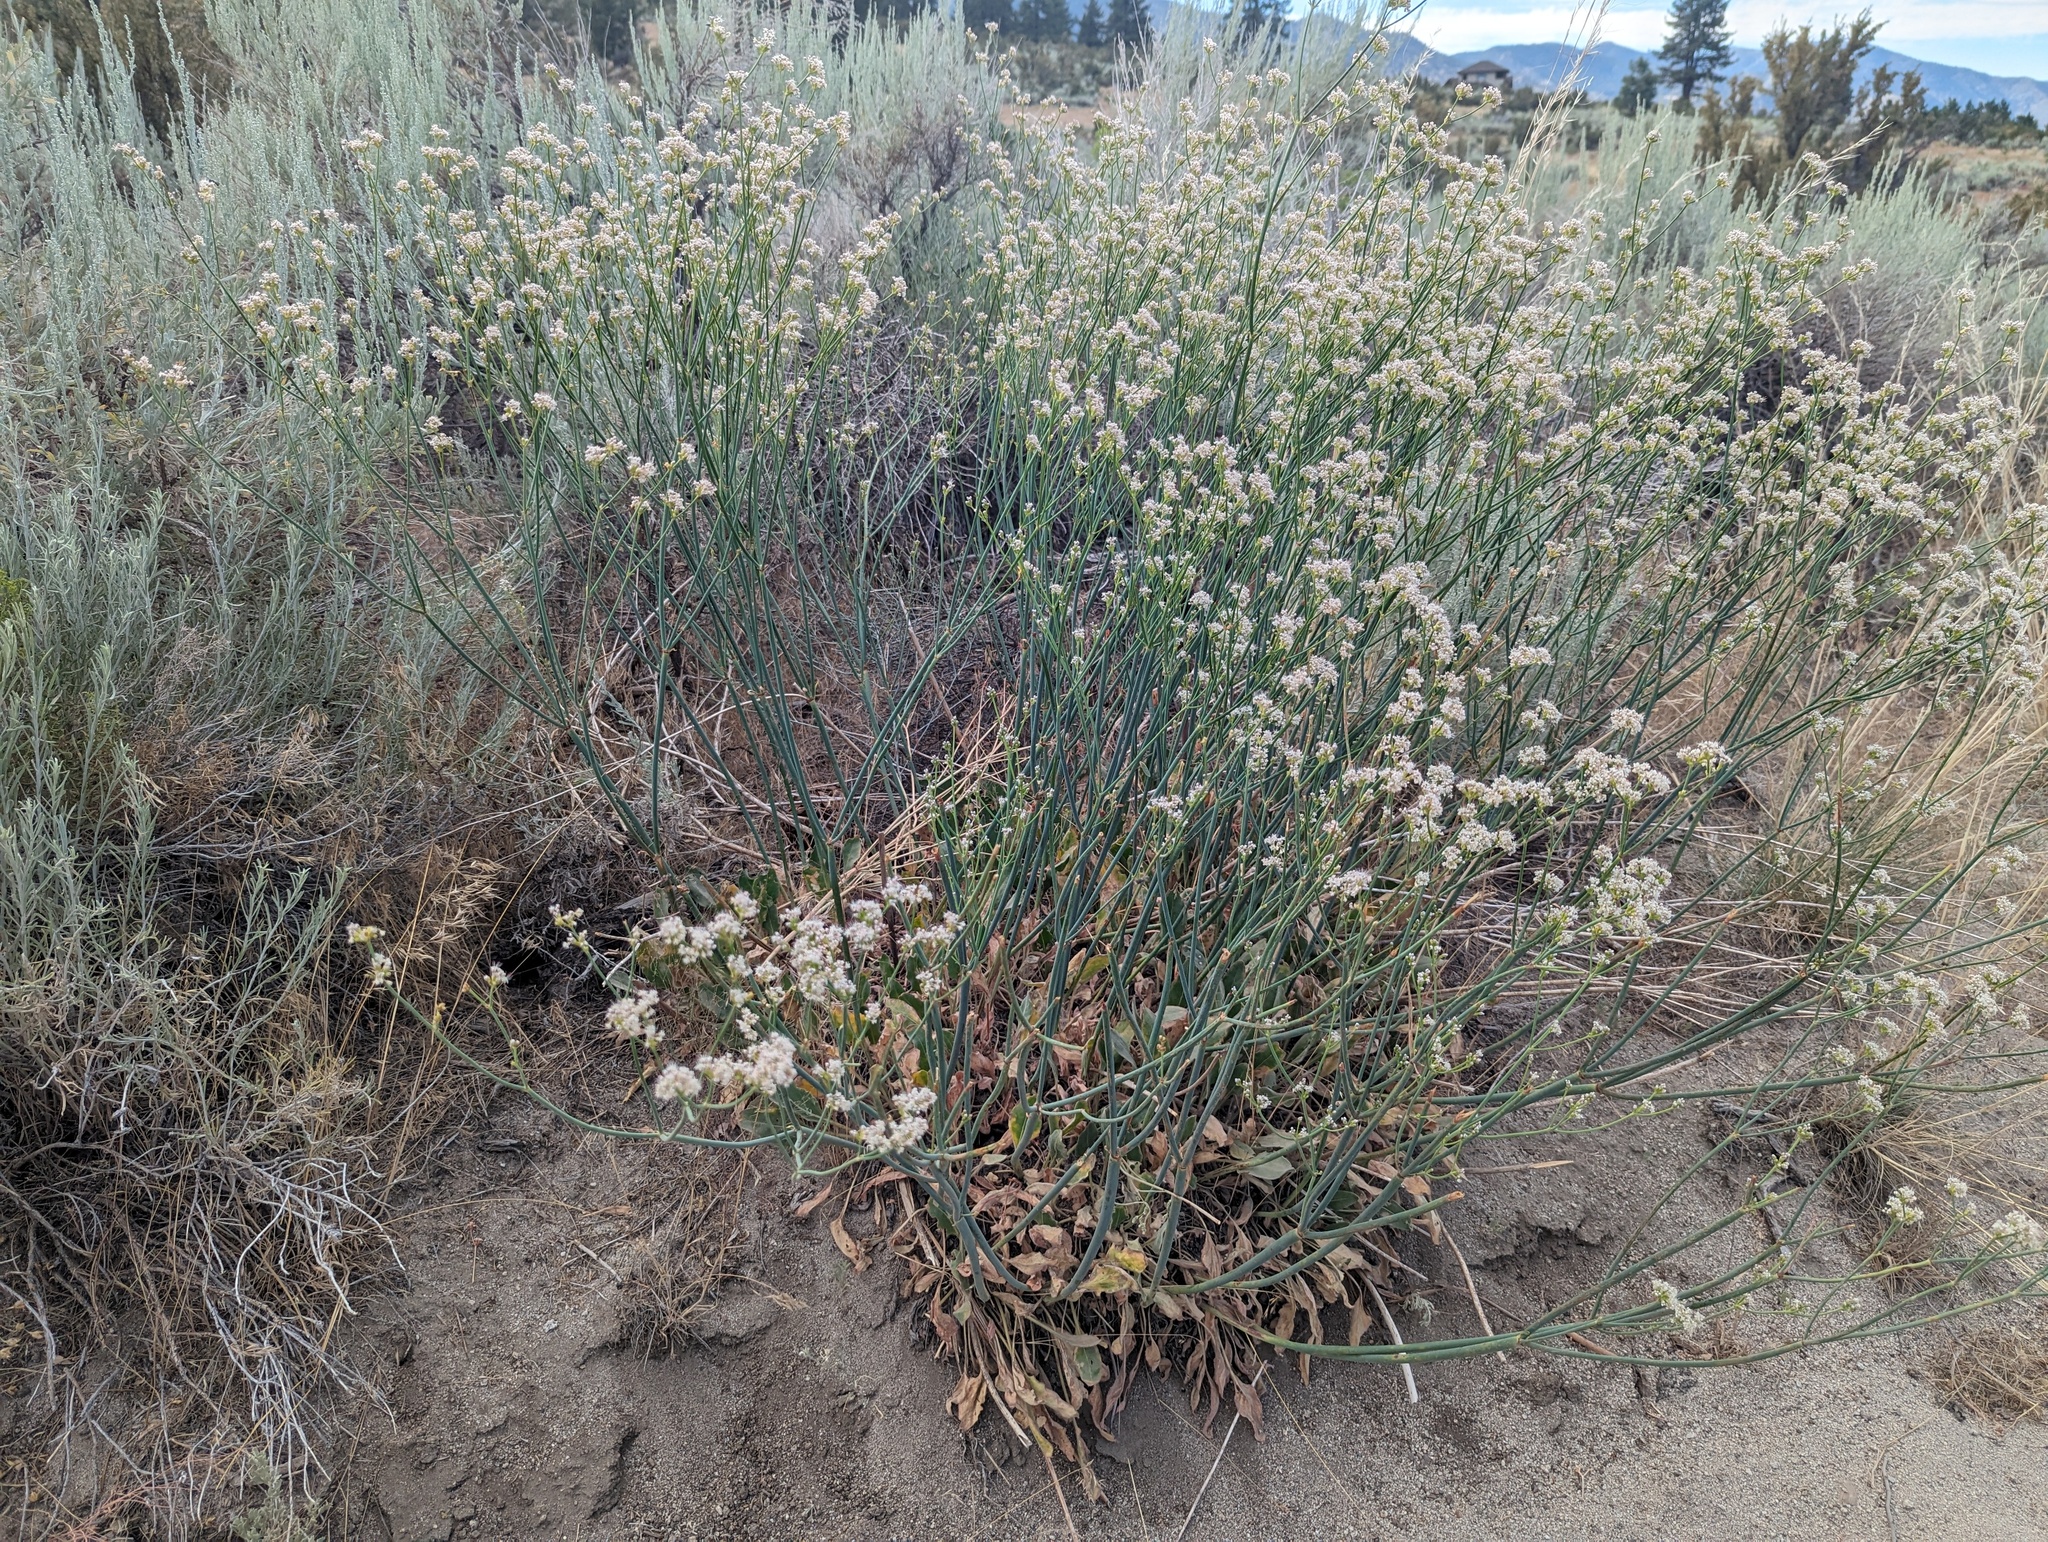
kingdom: Plantae
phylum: Tracheophyta
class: Magnoliopsida
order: Caryophyllales
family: Polygonaceae
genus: Eriogonum
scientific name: Eriogonum elatum
